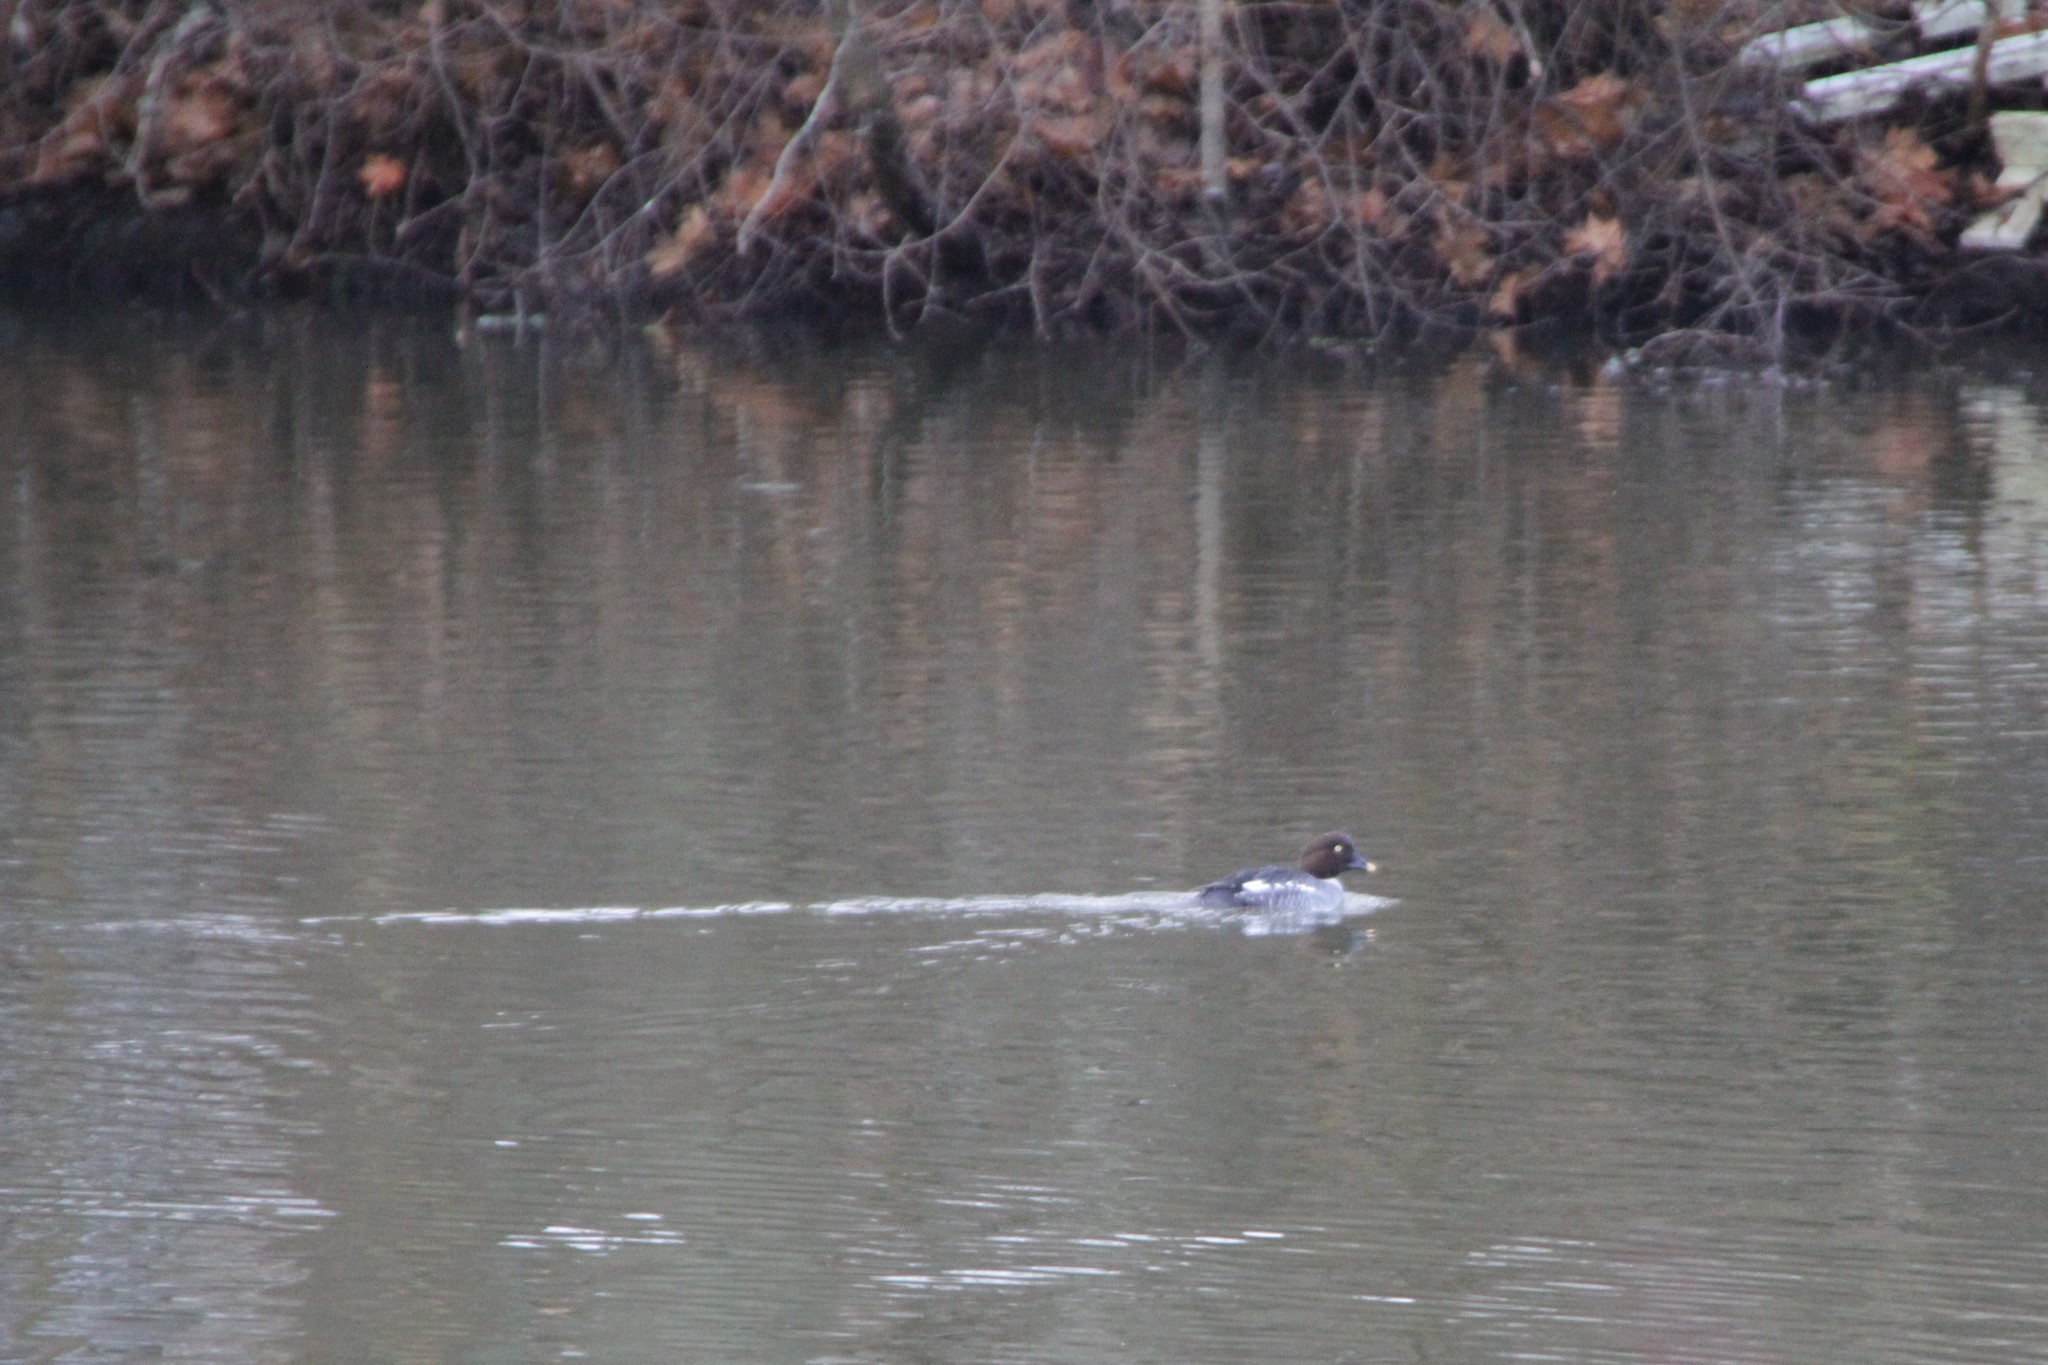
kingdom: Animalia
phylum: Chordata
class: Aves
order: Anseriformes
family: Anatidae
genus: Bucephala
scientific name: Bucephala clangula
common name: Common goldeneye
